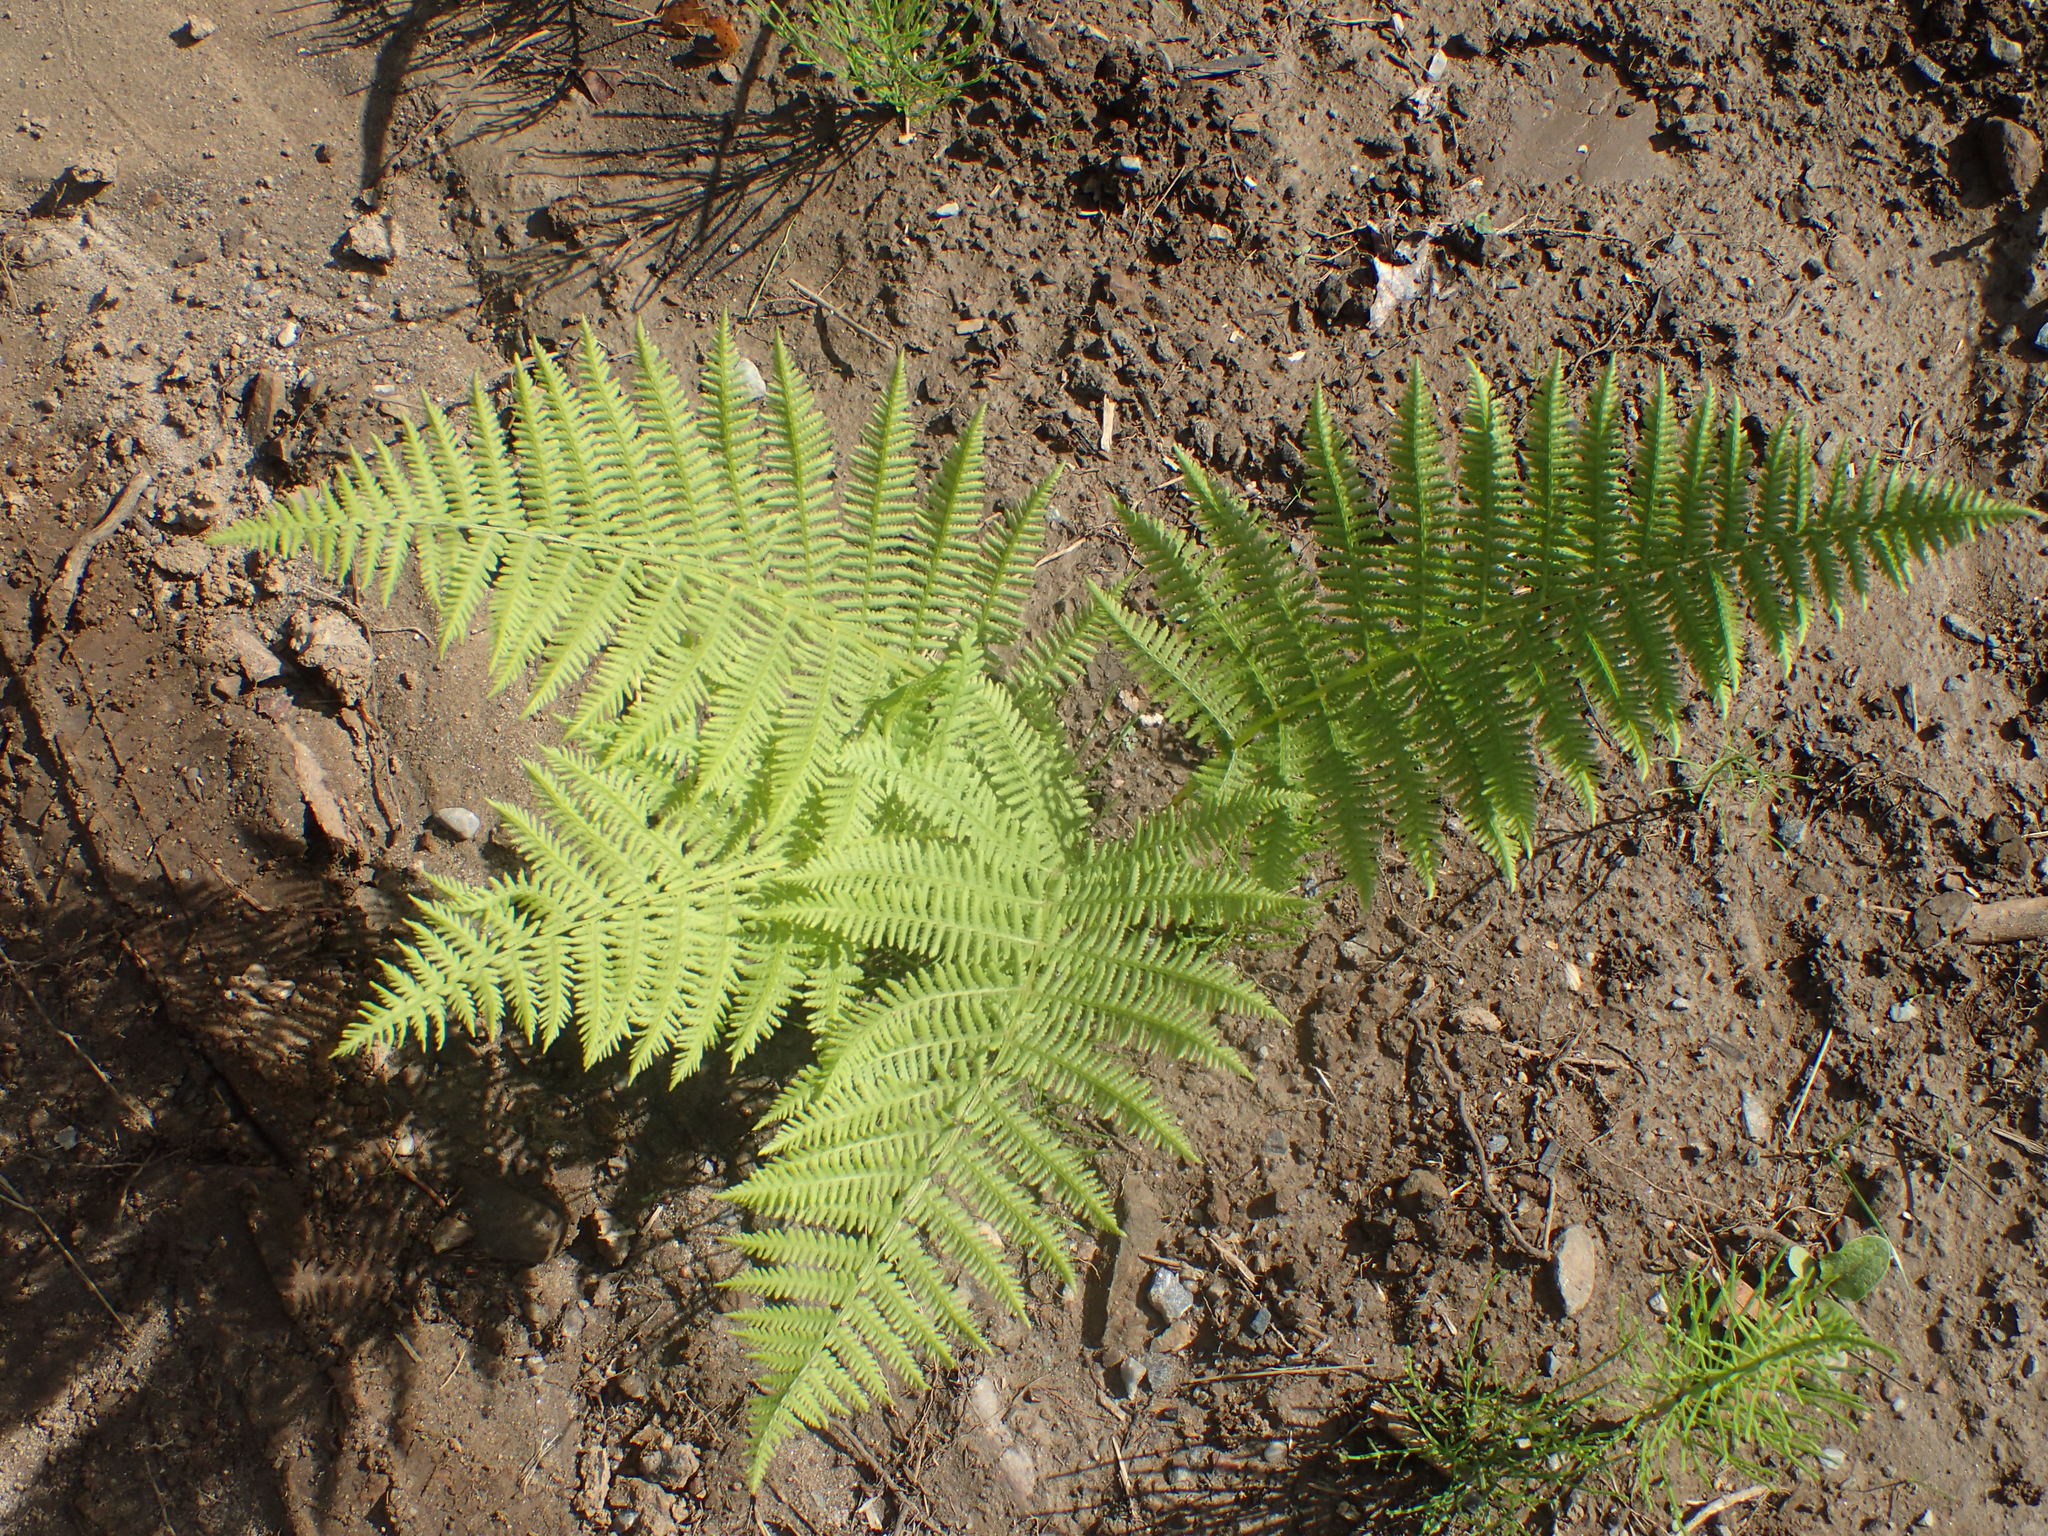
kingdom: Plantae
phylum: Tracheophyta
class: Polypodiopsida
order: Polypodiales
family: Athyriaceae
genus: Athyrium
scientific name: Athyrium angustum
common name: Northern lady fern
